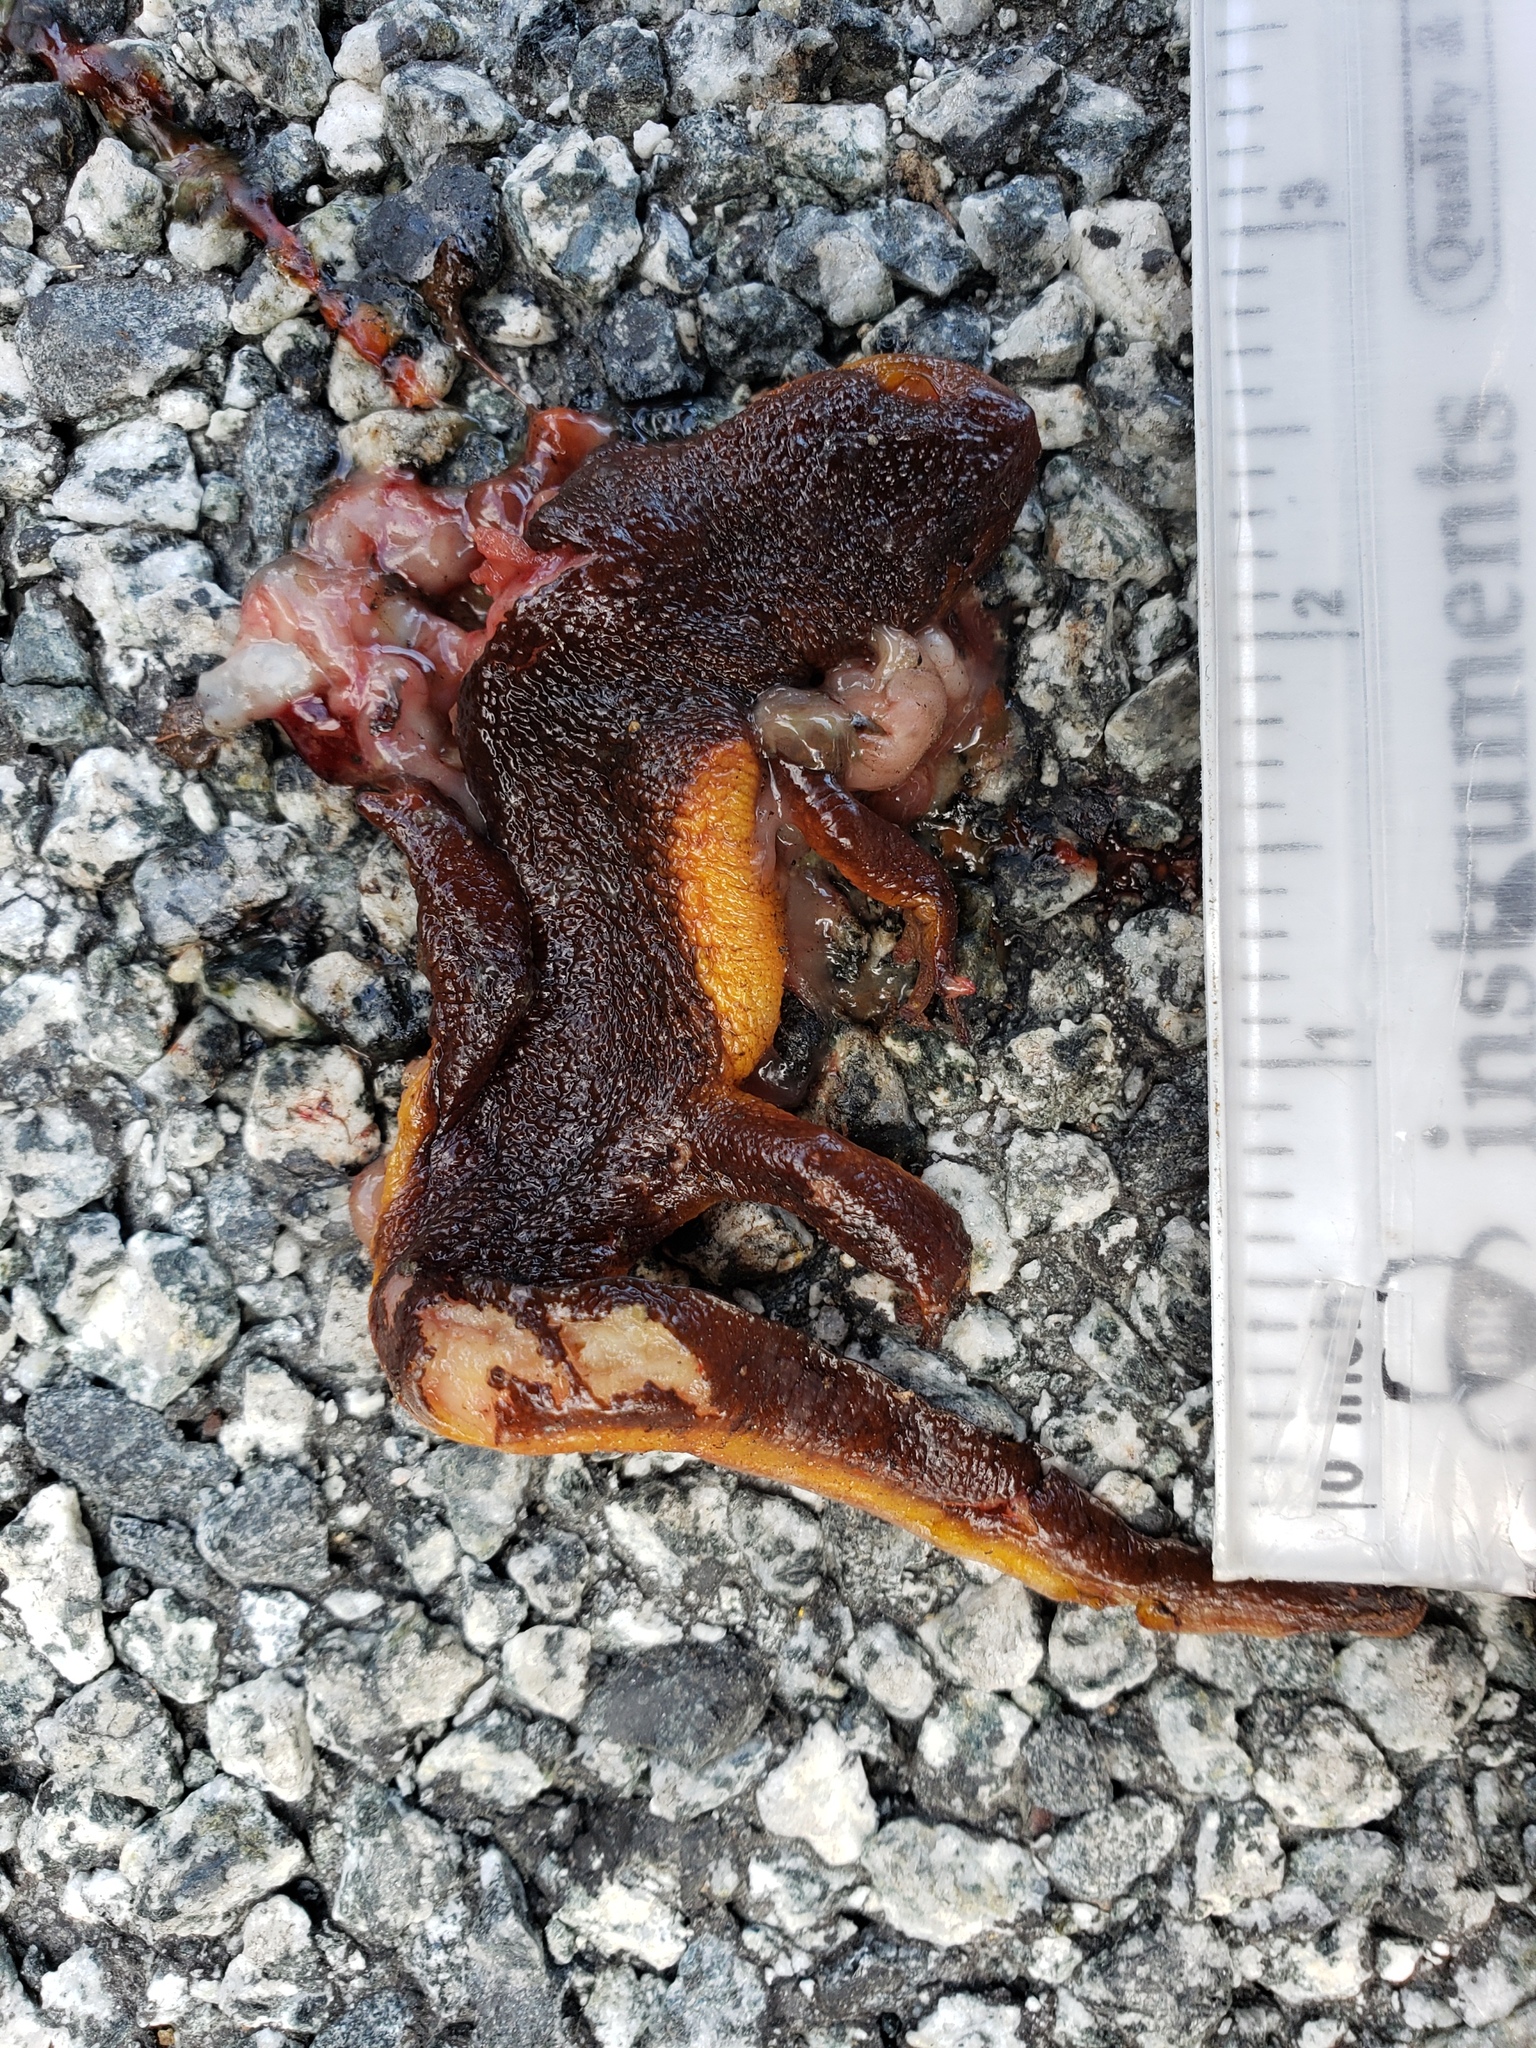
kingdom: Animalia
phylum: Chordata
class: Amphibia
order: Caudata
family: Salamandridae
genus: Taricha
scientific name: Taricha
